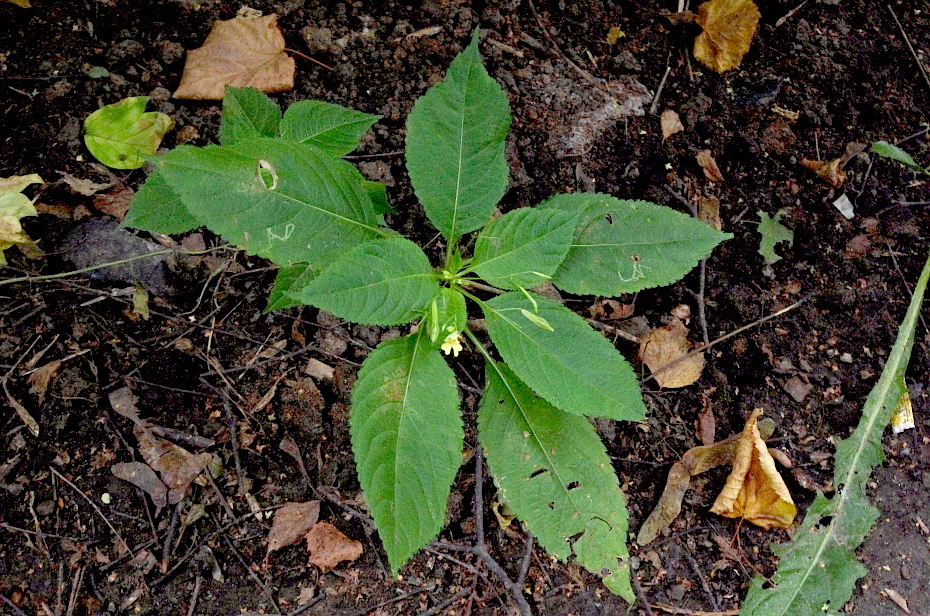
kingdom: Plantae
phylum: Tracheophyta
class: Magnoliopsida
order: Ericales
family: Balsaminaceae
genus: Impatiens
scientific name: Impatiens parviflora
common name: Small balsam
